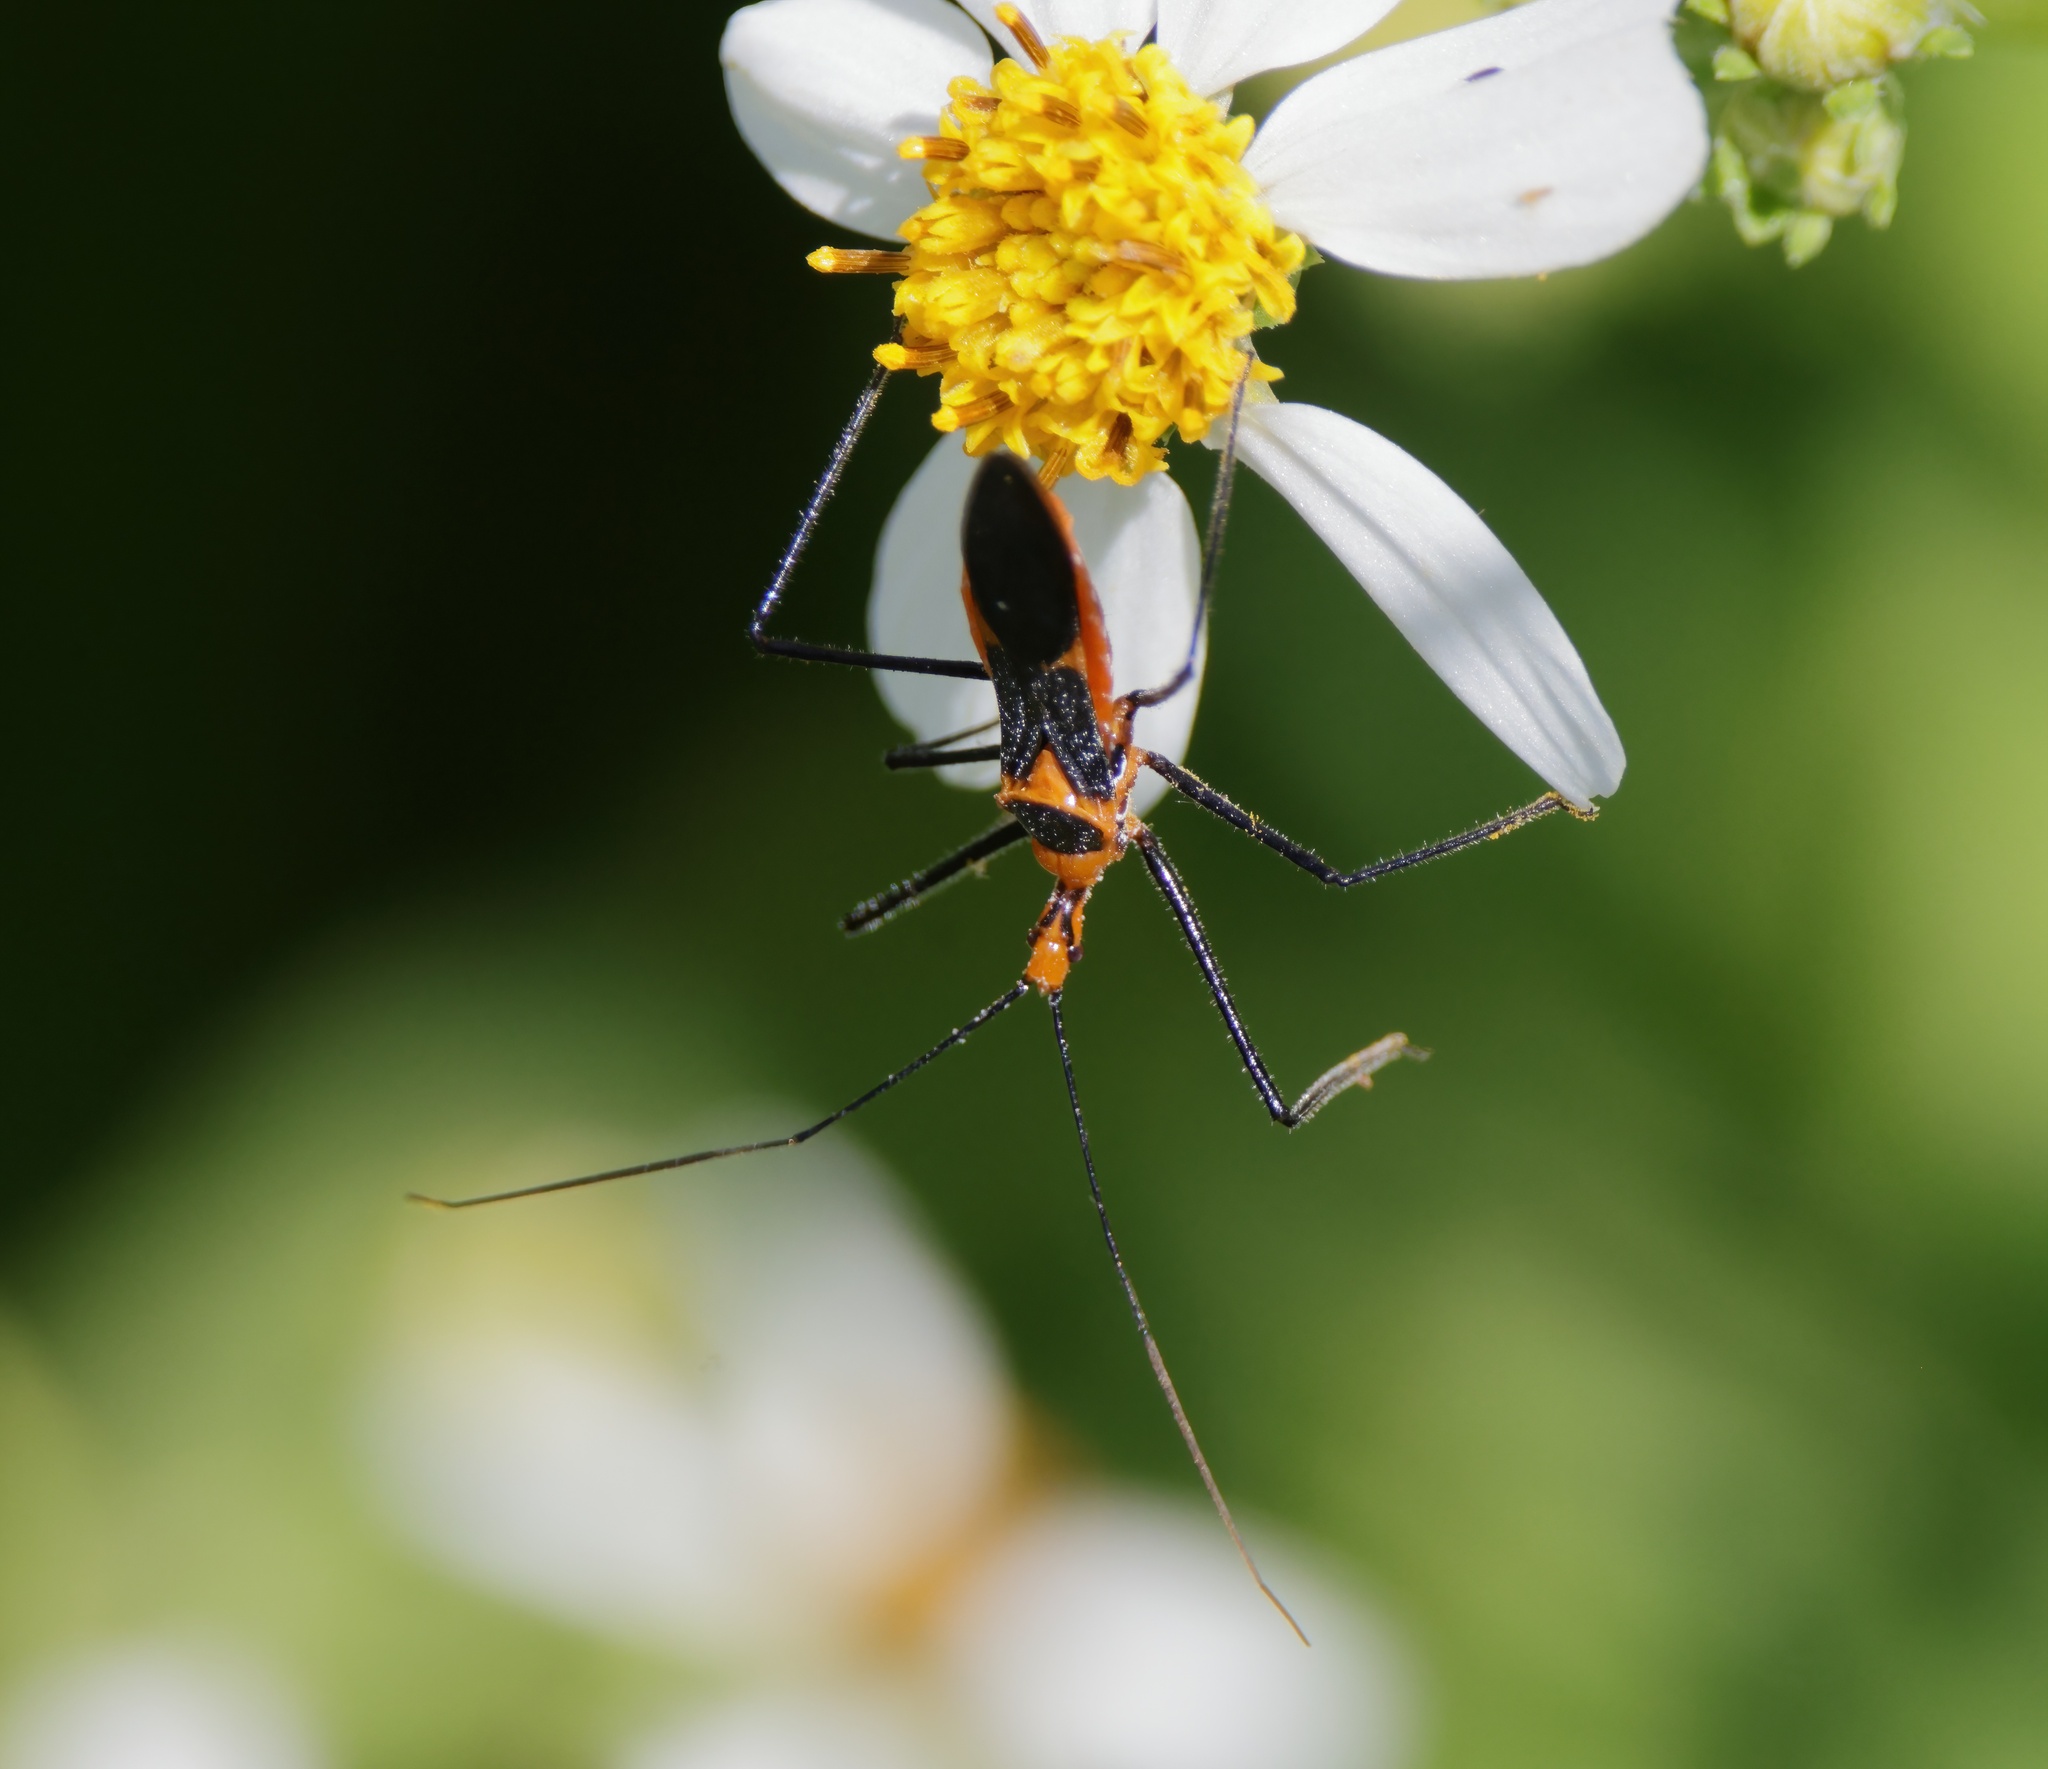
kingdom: Animalia
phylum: Arthropoda
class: Insecta
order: Hemiptera
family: Reduviidae
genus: Zelus
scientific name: Zelus longipes
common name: Milkweed assassin bug
